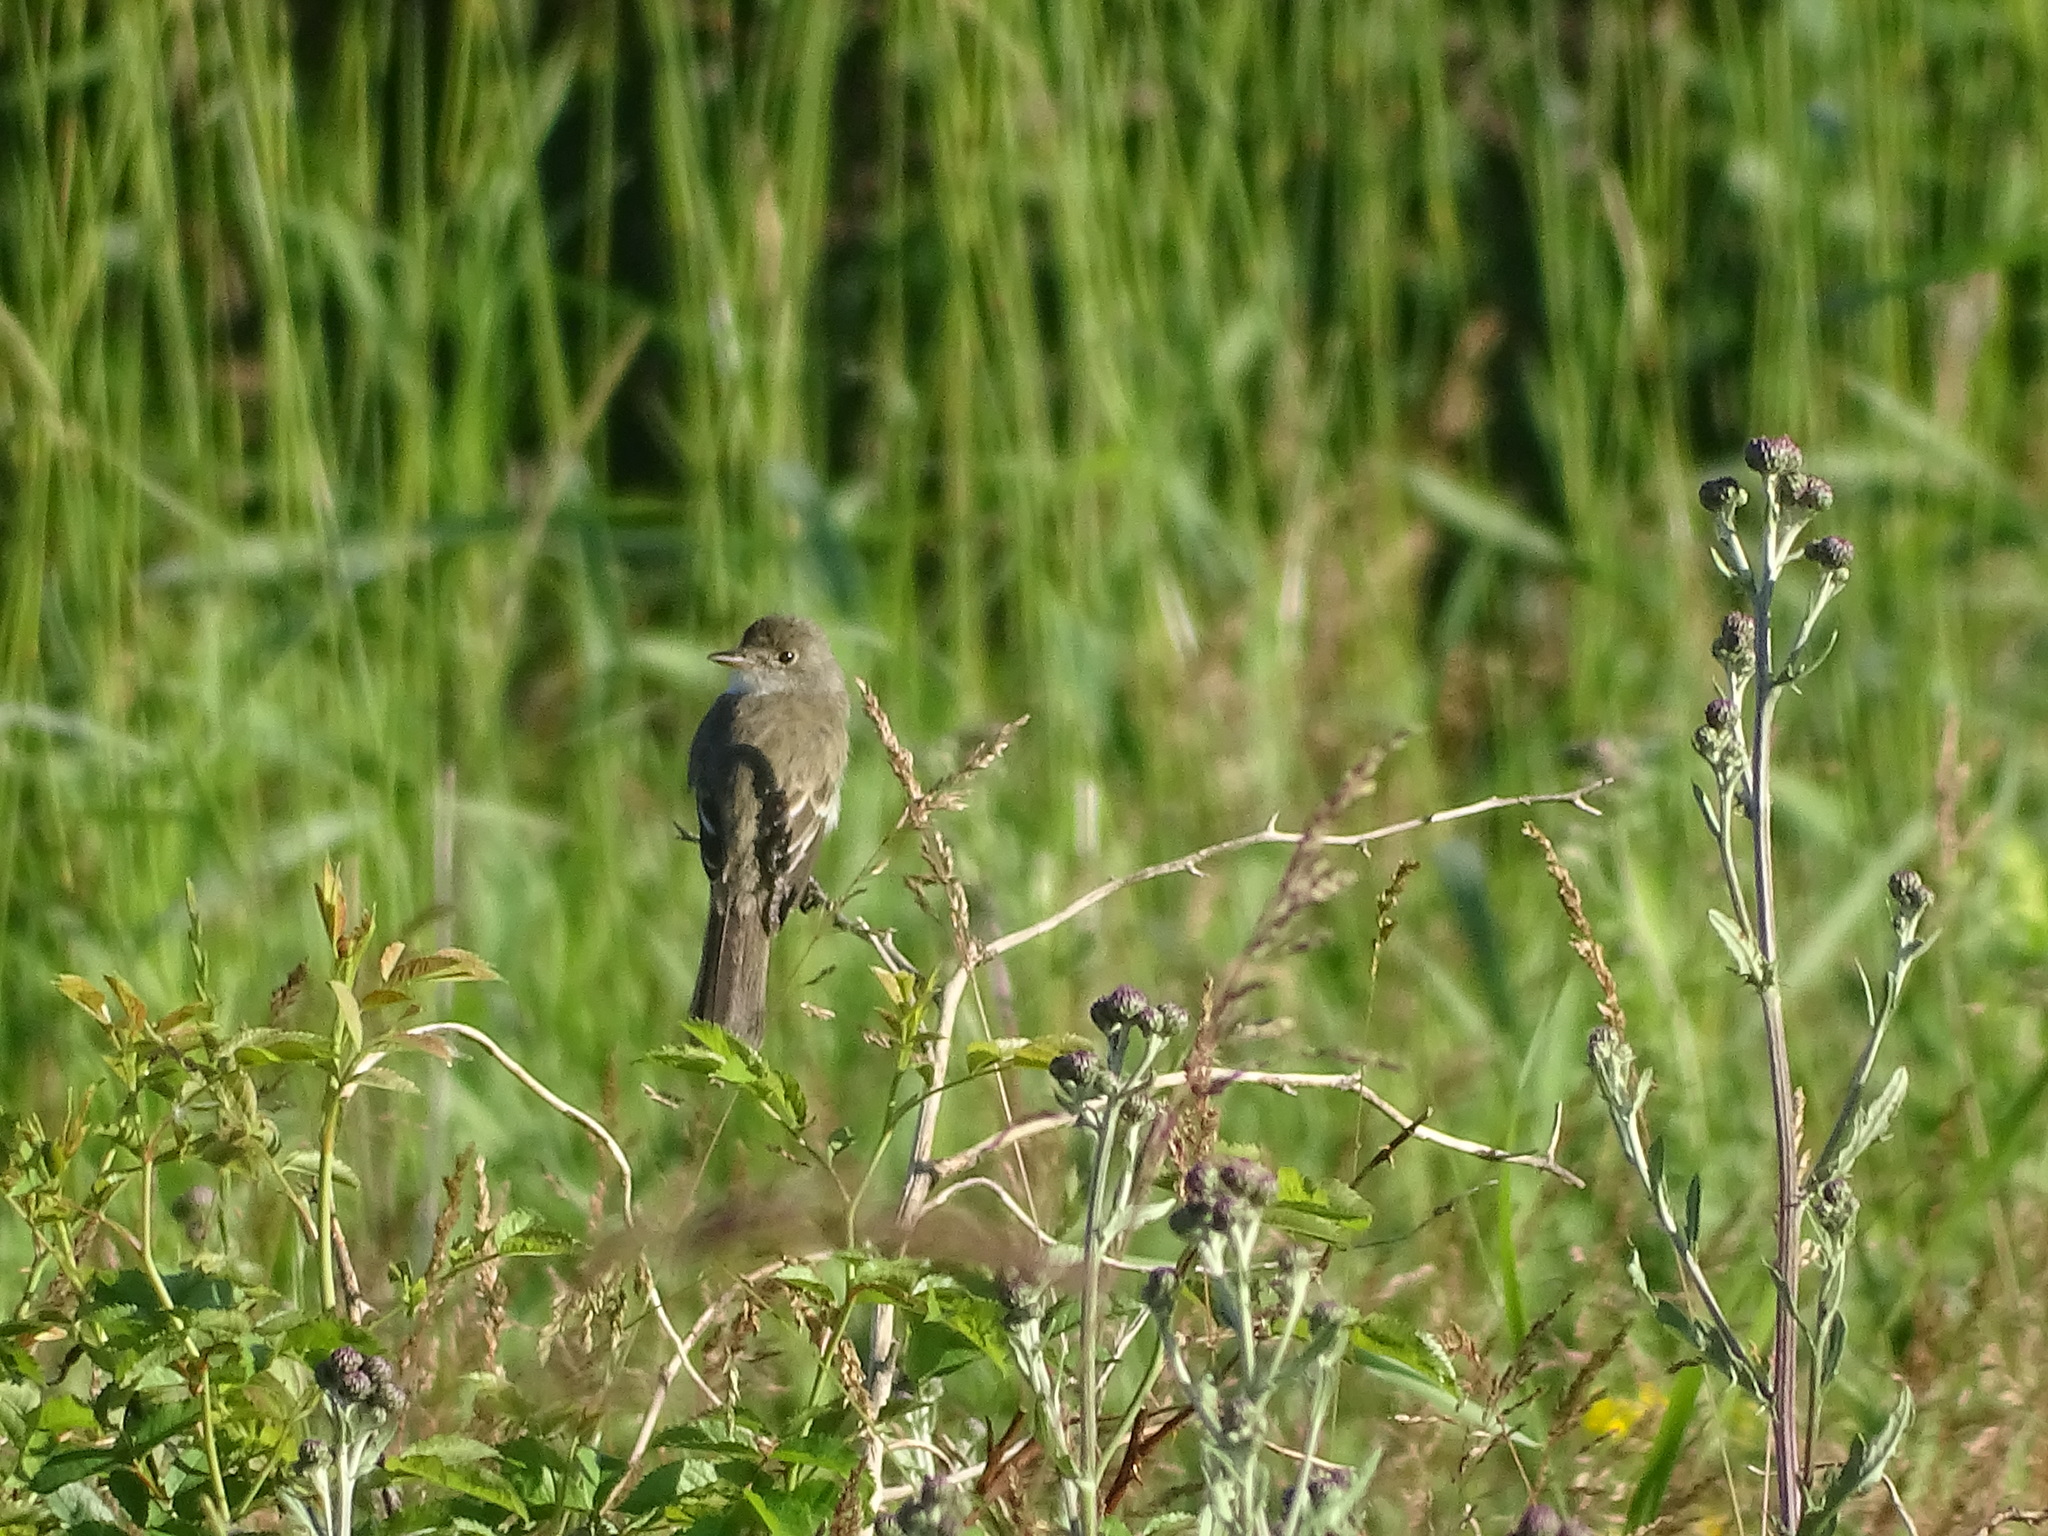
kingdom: Animalia
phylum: Chordata
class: Aves
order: Passeriformes
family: Tyrannidae
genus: Empidonax
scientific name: Empidonax traillii
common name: Willow flycatcher
